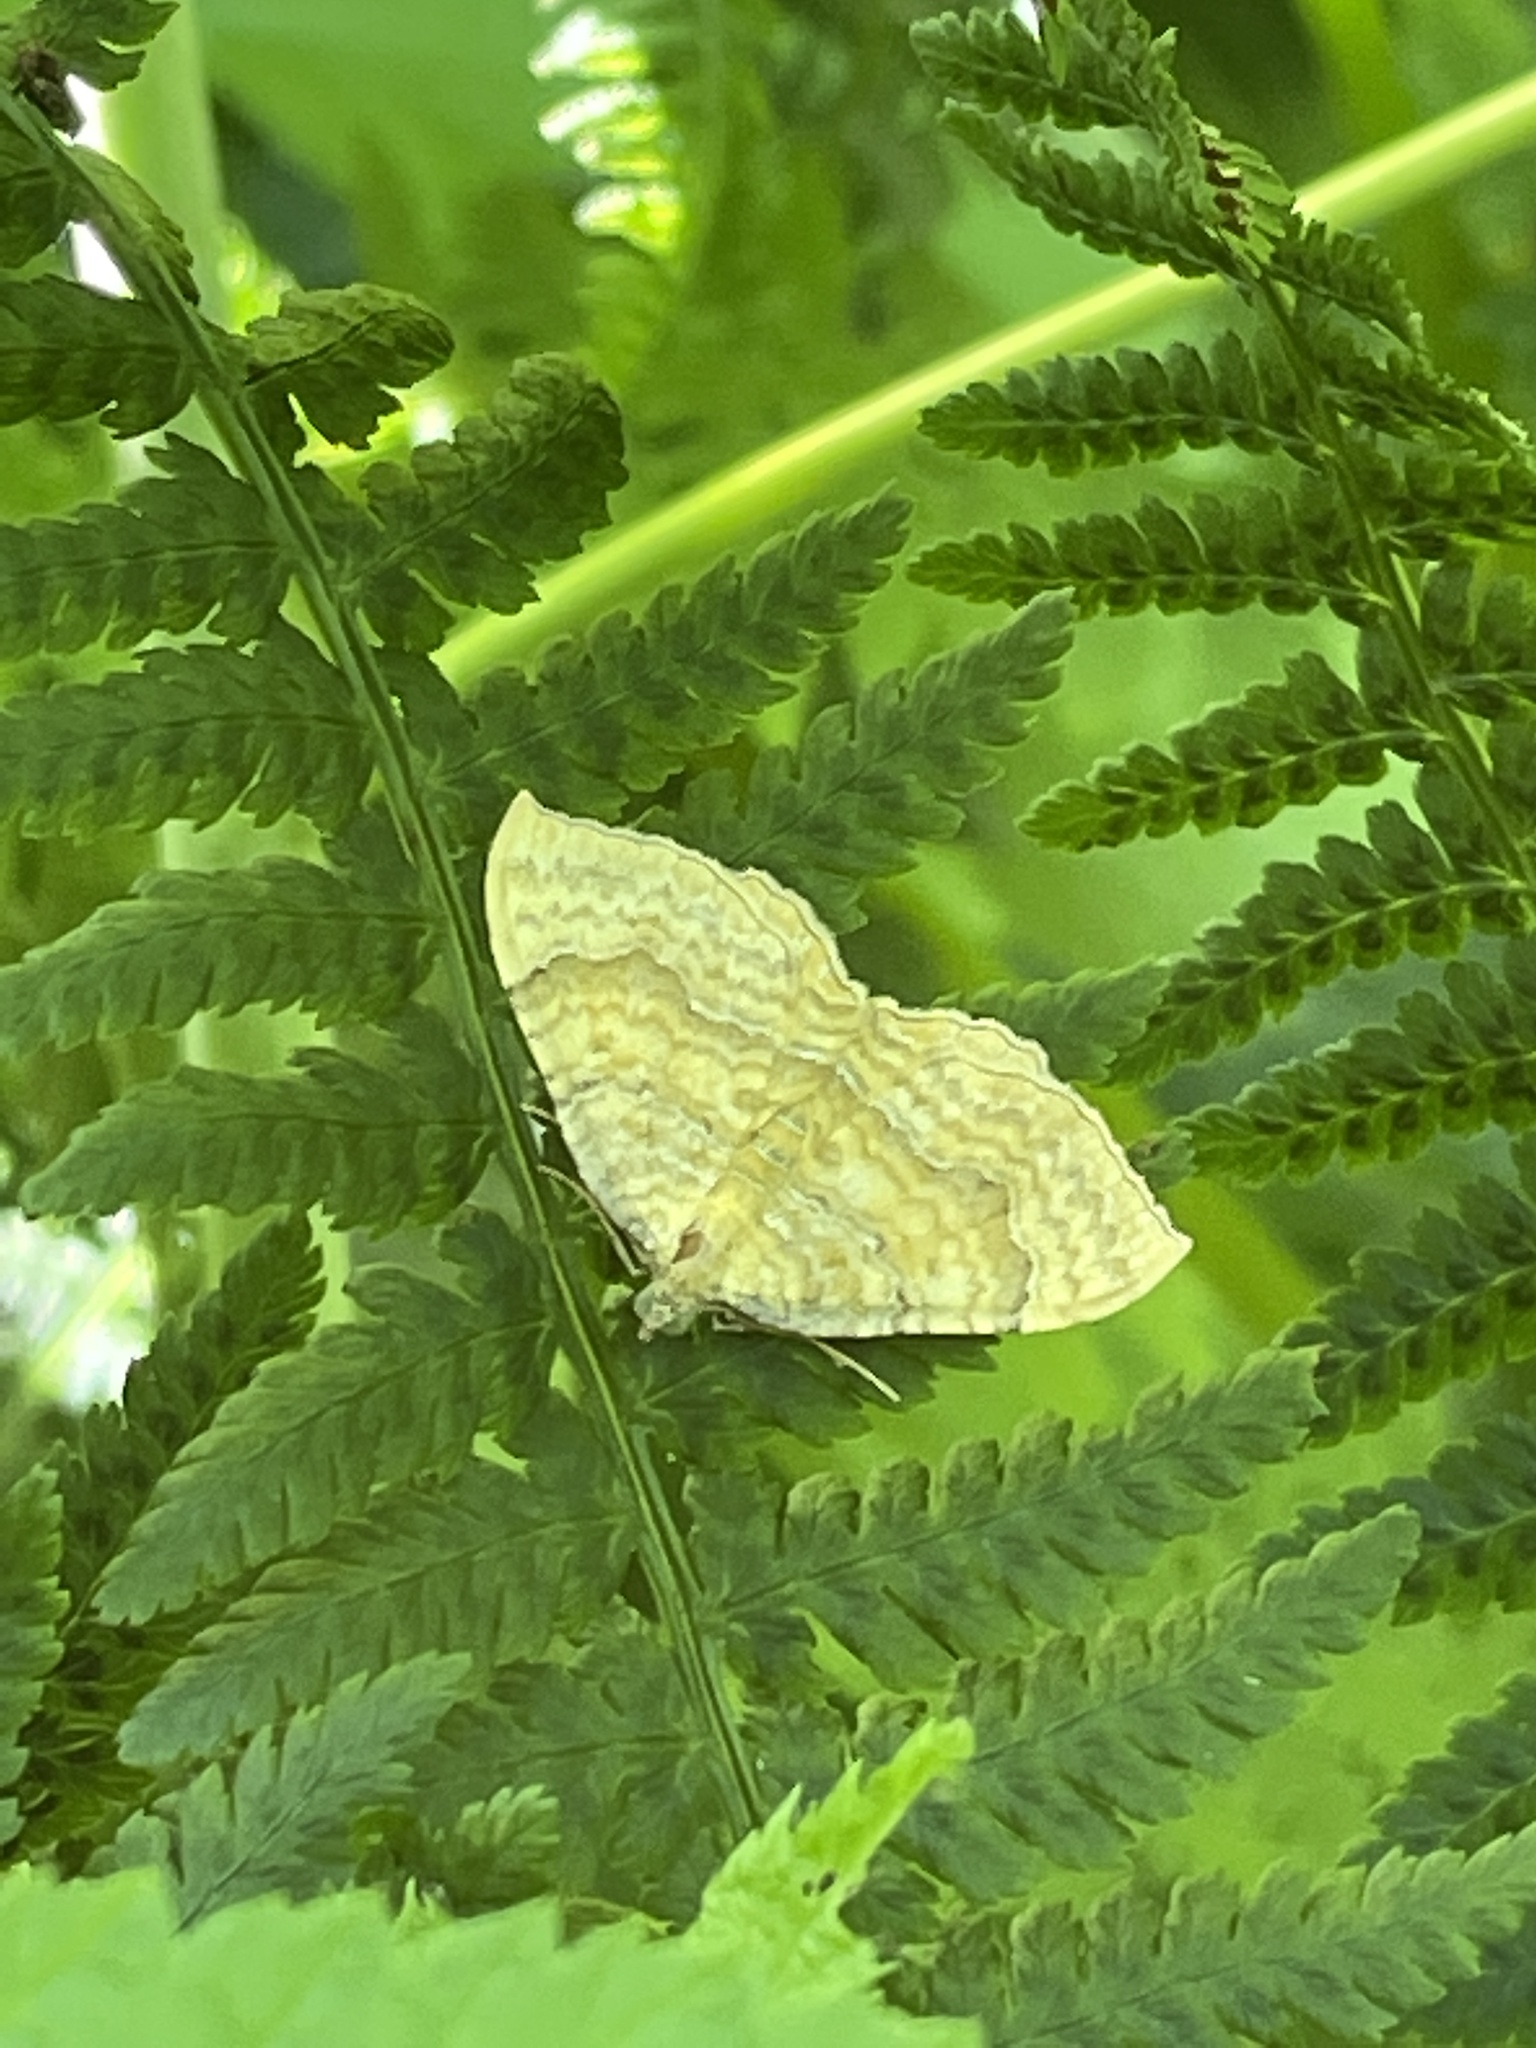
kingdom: Animalia
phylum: Arthropoda
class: Insecta
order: Lepidoptera
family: Geometridae
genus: Camptogramma
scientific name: Camptogramma bilineata
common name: Yellow shell
